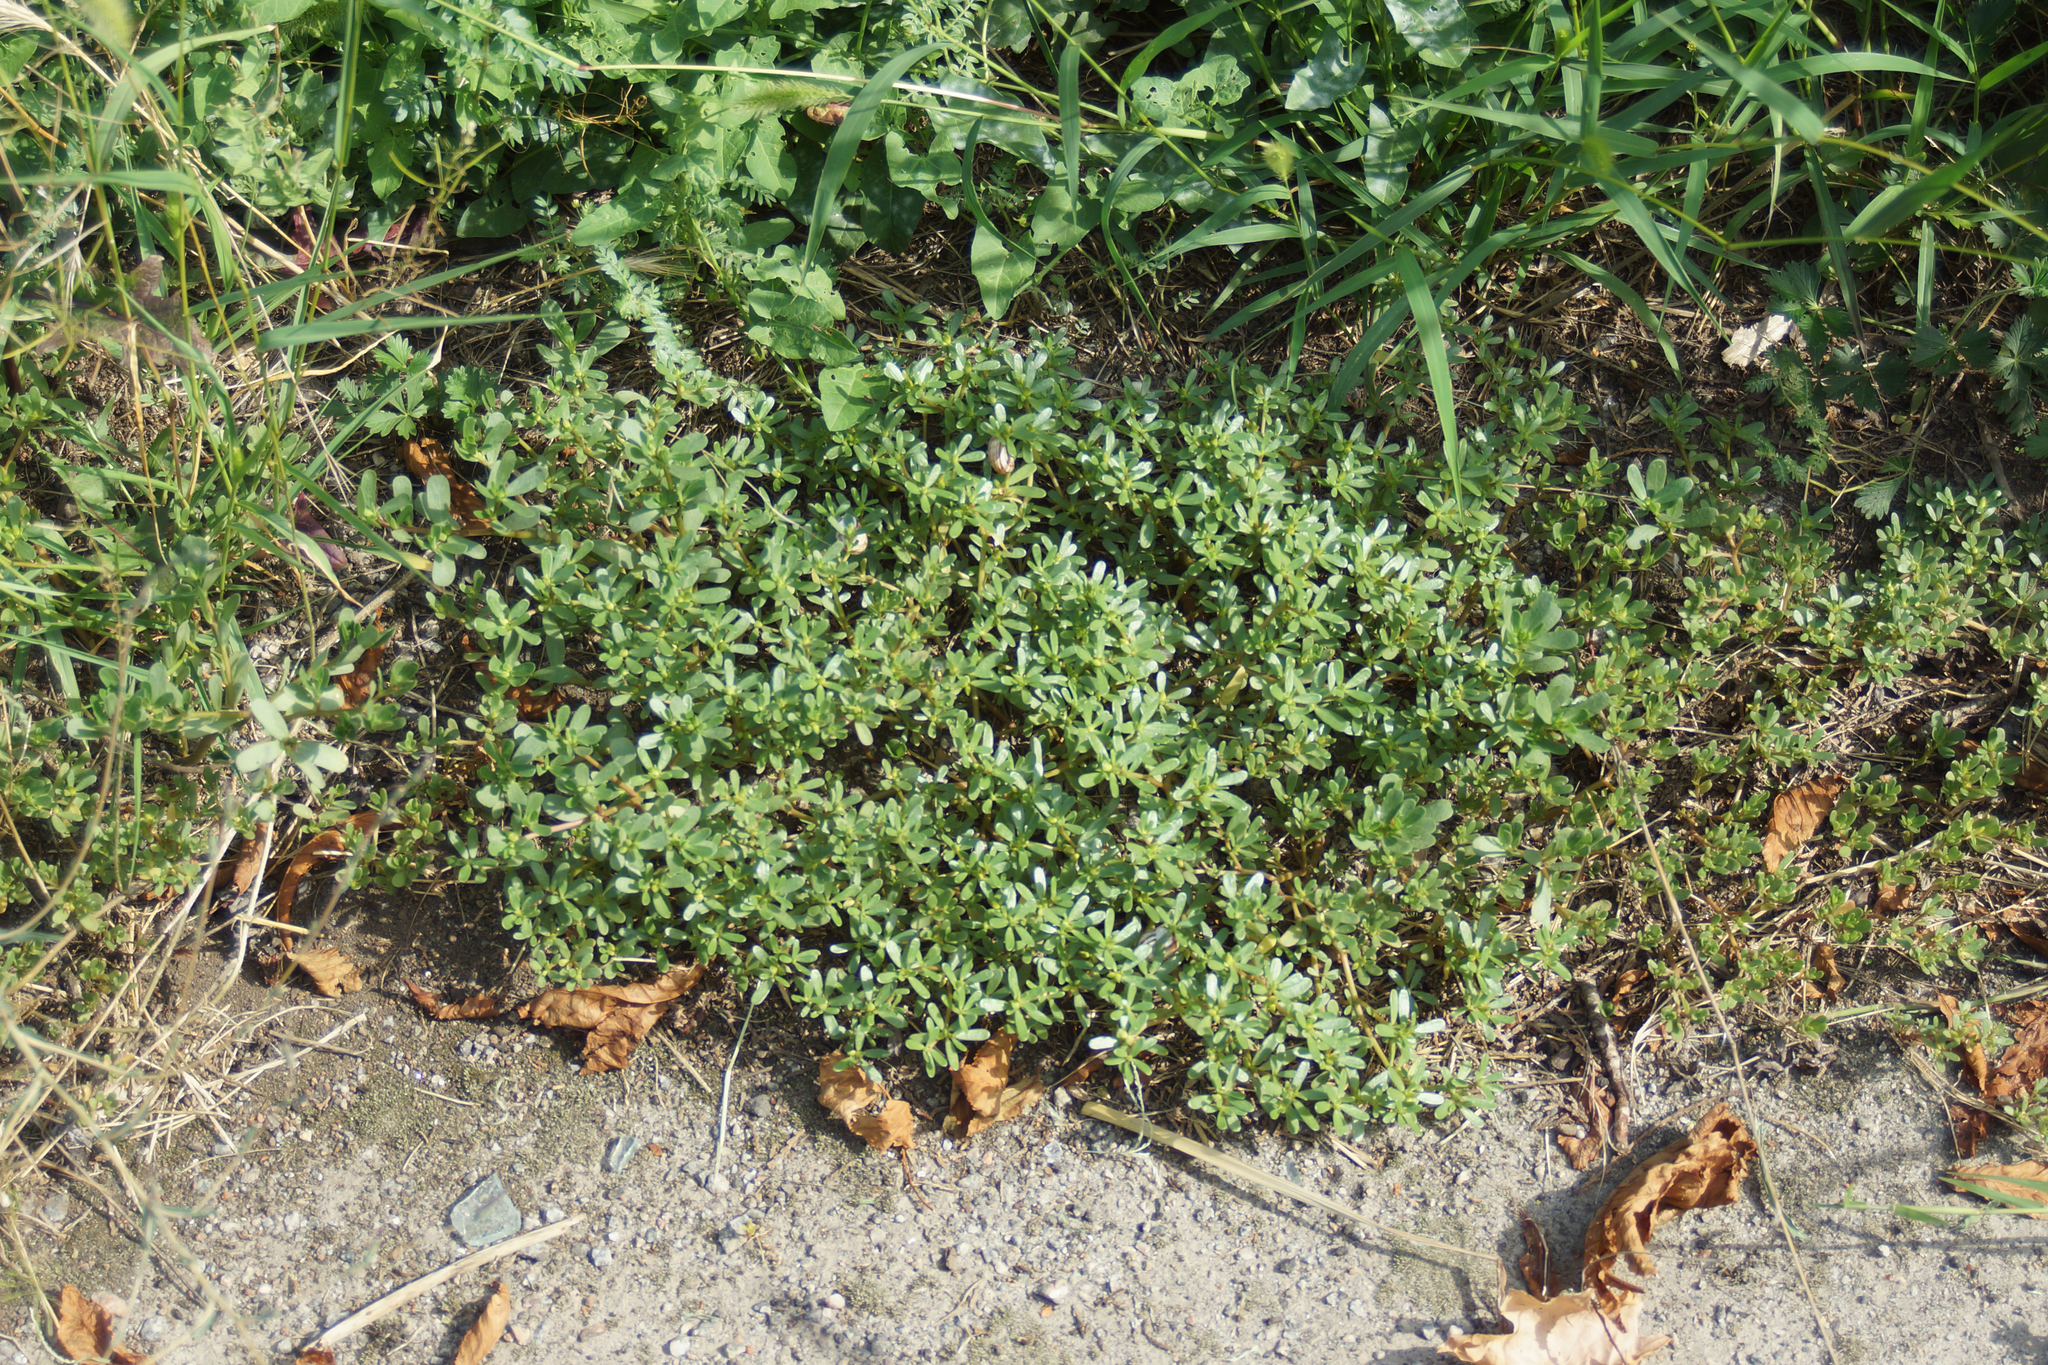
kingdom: Plantae
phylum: Tracheophyta
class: Magnoliopsida
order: Caryophyllales
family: Portulacaceae
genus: Portulaca
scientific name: Portulaca oleracea
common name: Common purslane
